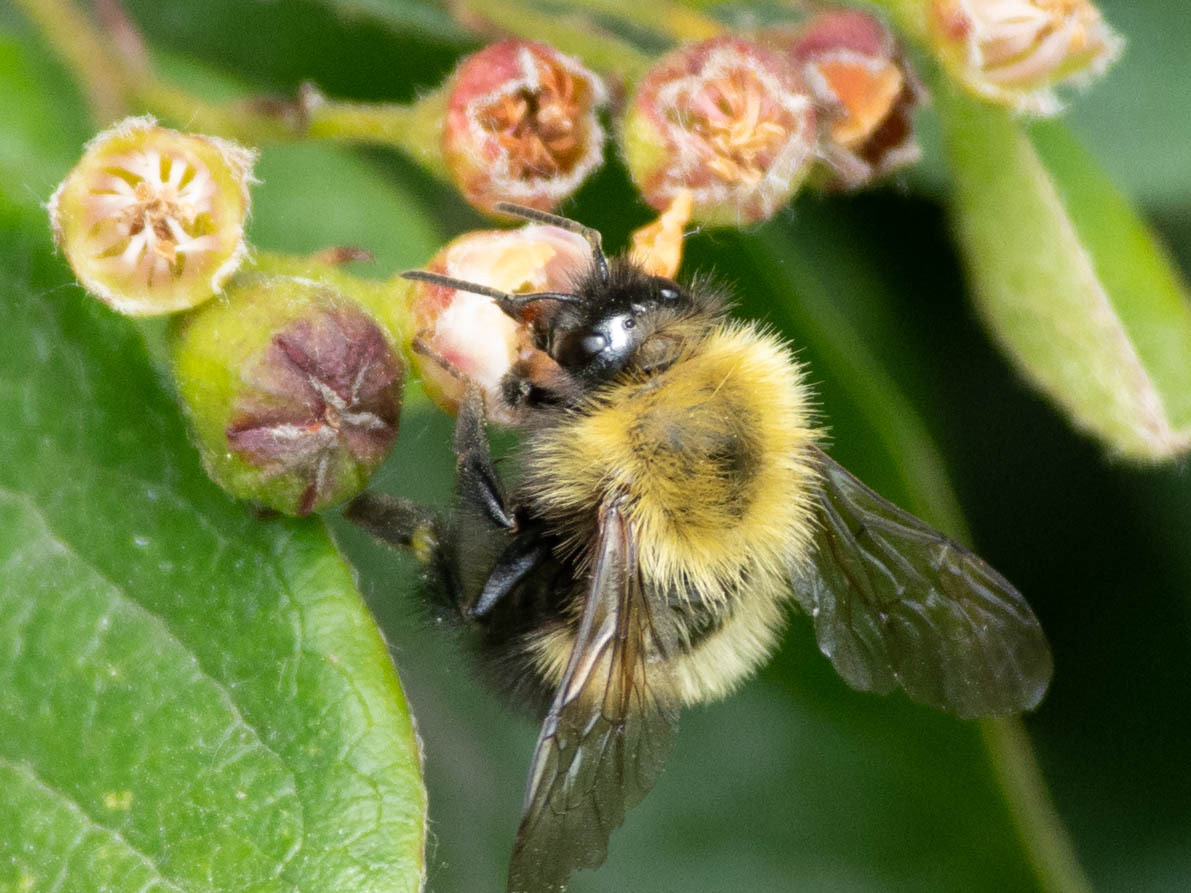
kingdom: Animalia
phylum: Arthropoda
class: Insecta
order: Hymenoptera
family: Apidae
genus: Bombus
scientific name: Bombus perplexus
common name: Confusing bumble bee
